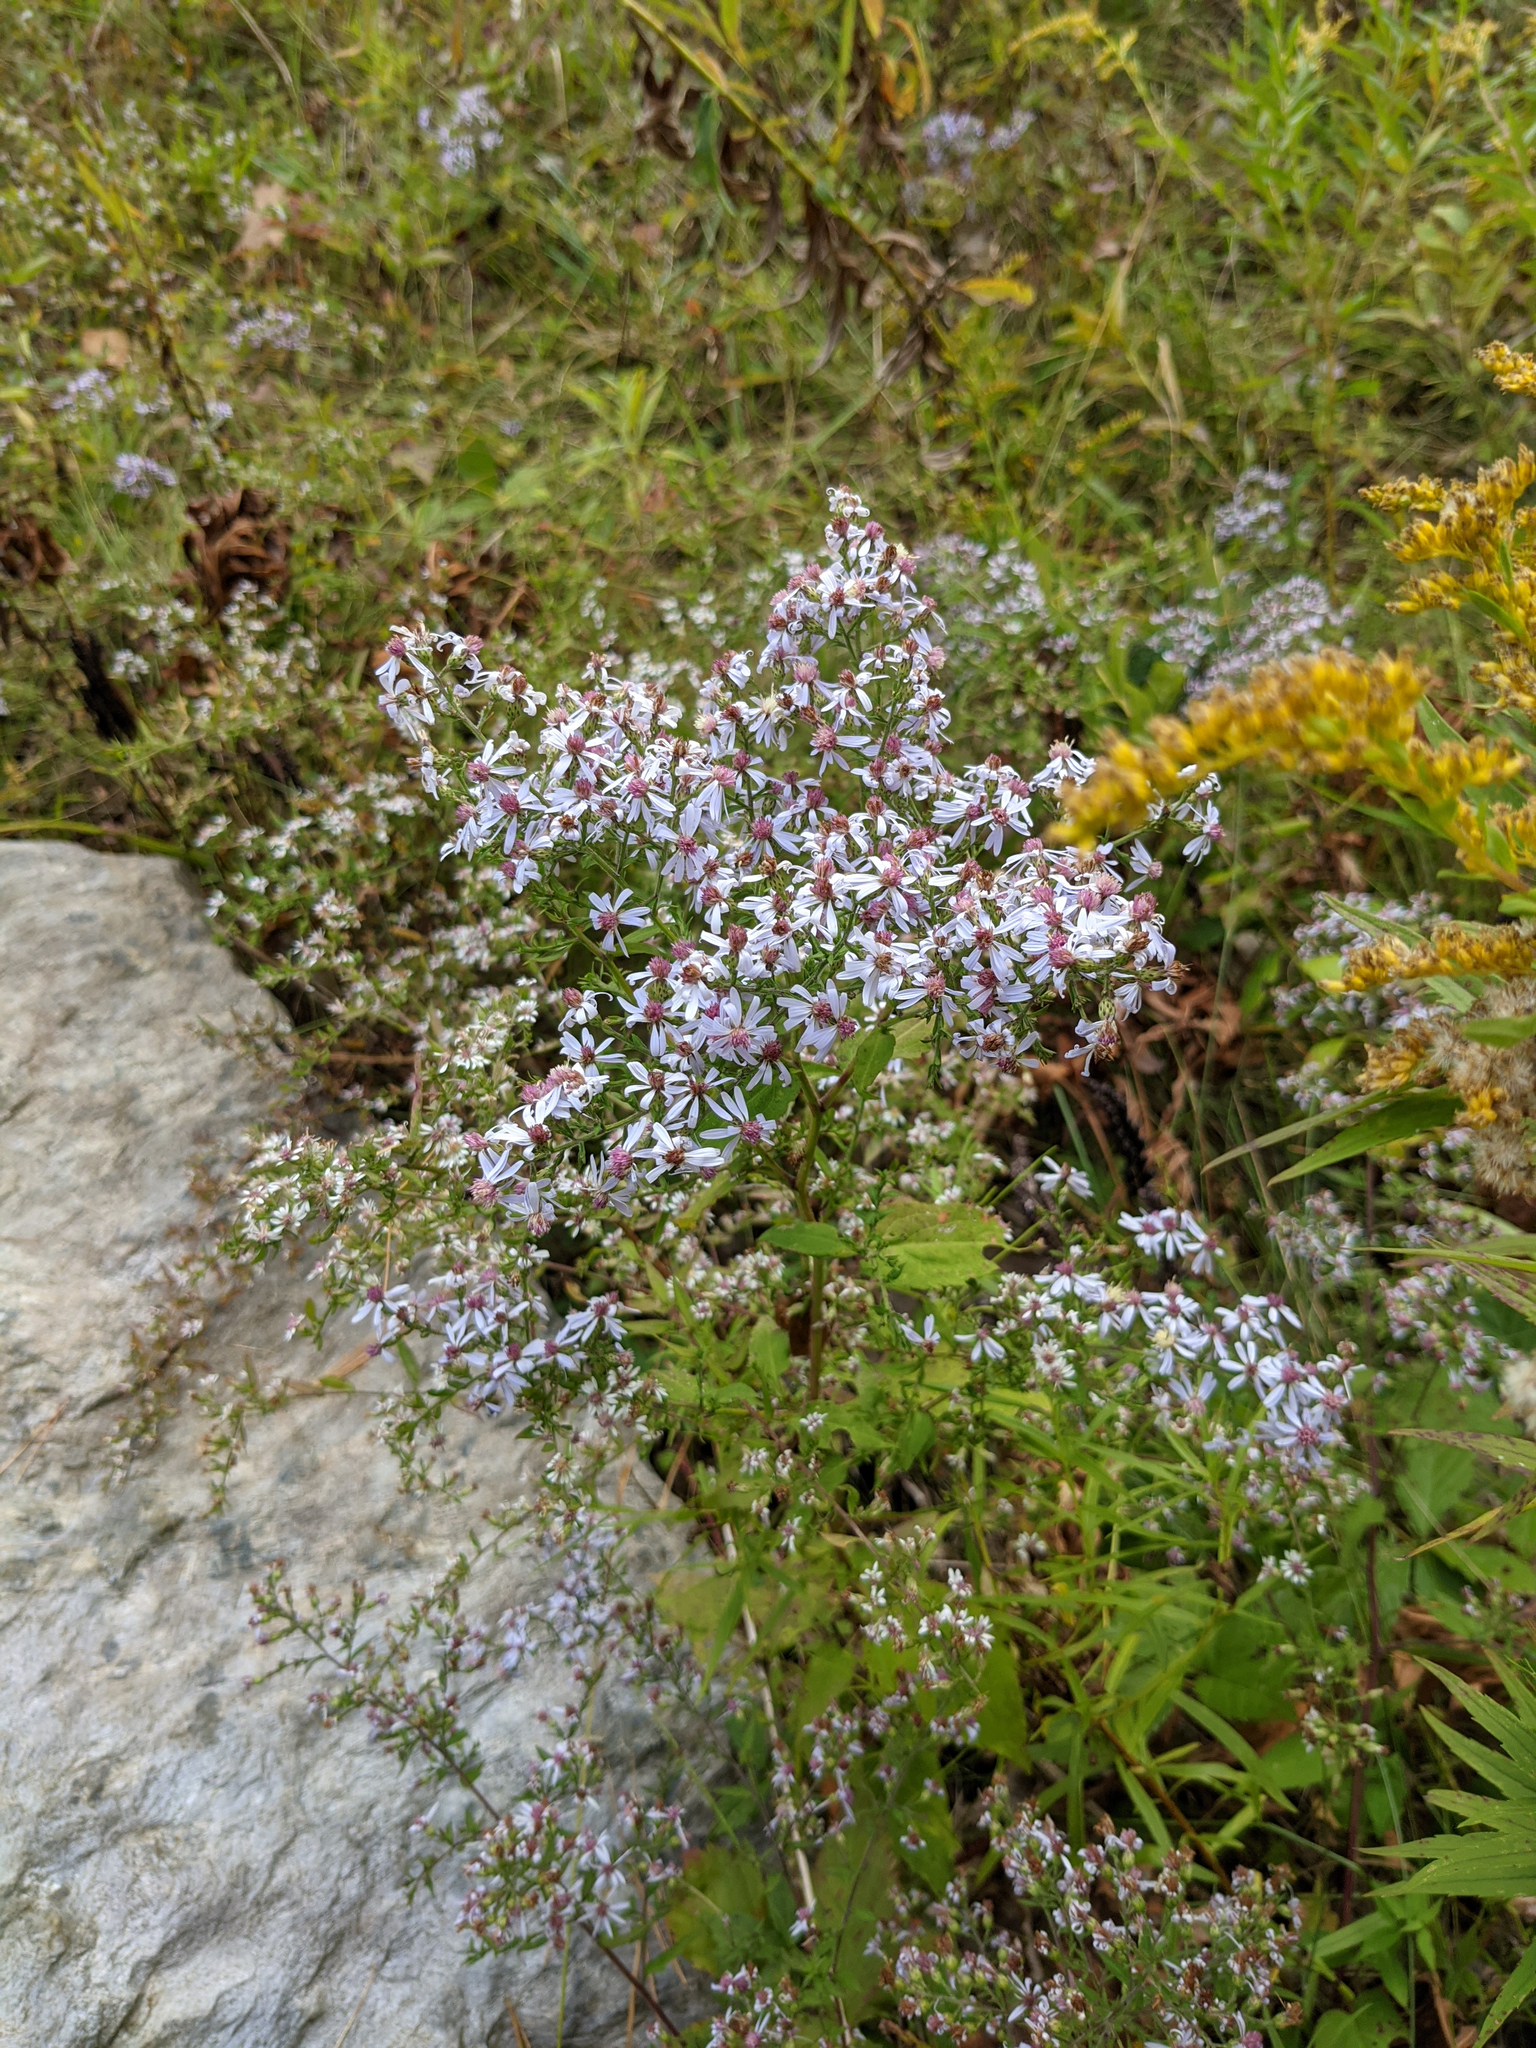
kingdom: Plantae
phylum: Tracheophyta
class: Magnoliopsida
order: Asterales
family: Asteraceae
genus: Symphyotrichum
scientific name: Symphyotrichum cordifolium
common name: Beeweed
